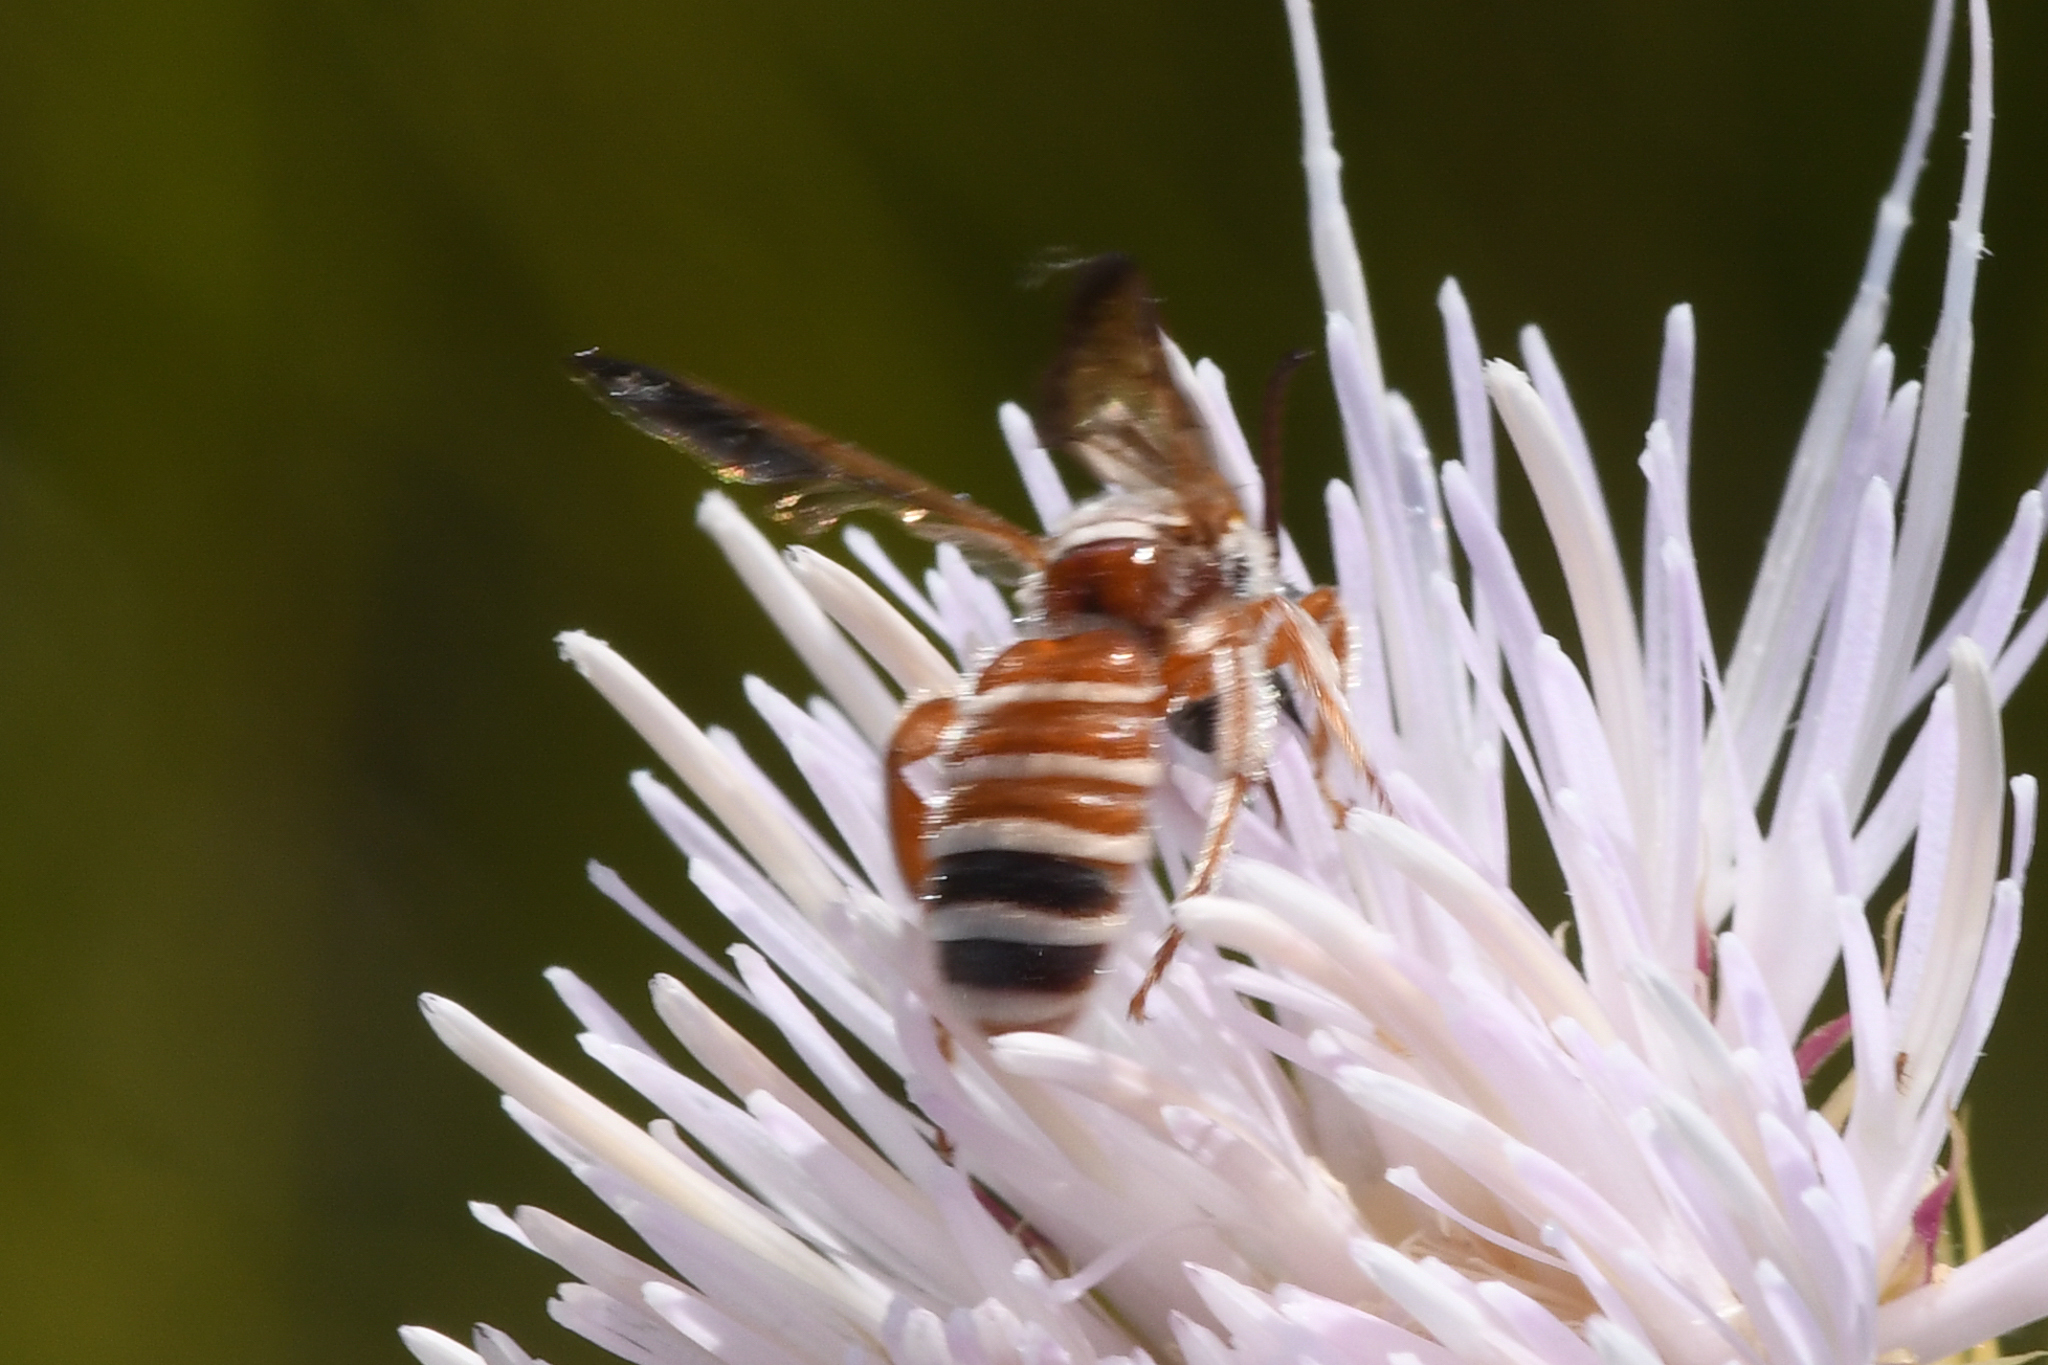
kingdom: Animalia
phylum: Arthropoda
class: Insecta
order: Hymenoptera
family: Halictidae
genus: Dieunomia
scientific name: Dieunomia nevadensis
